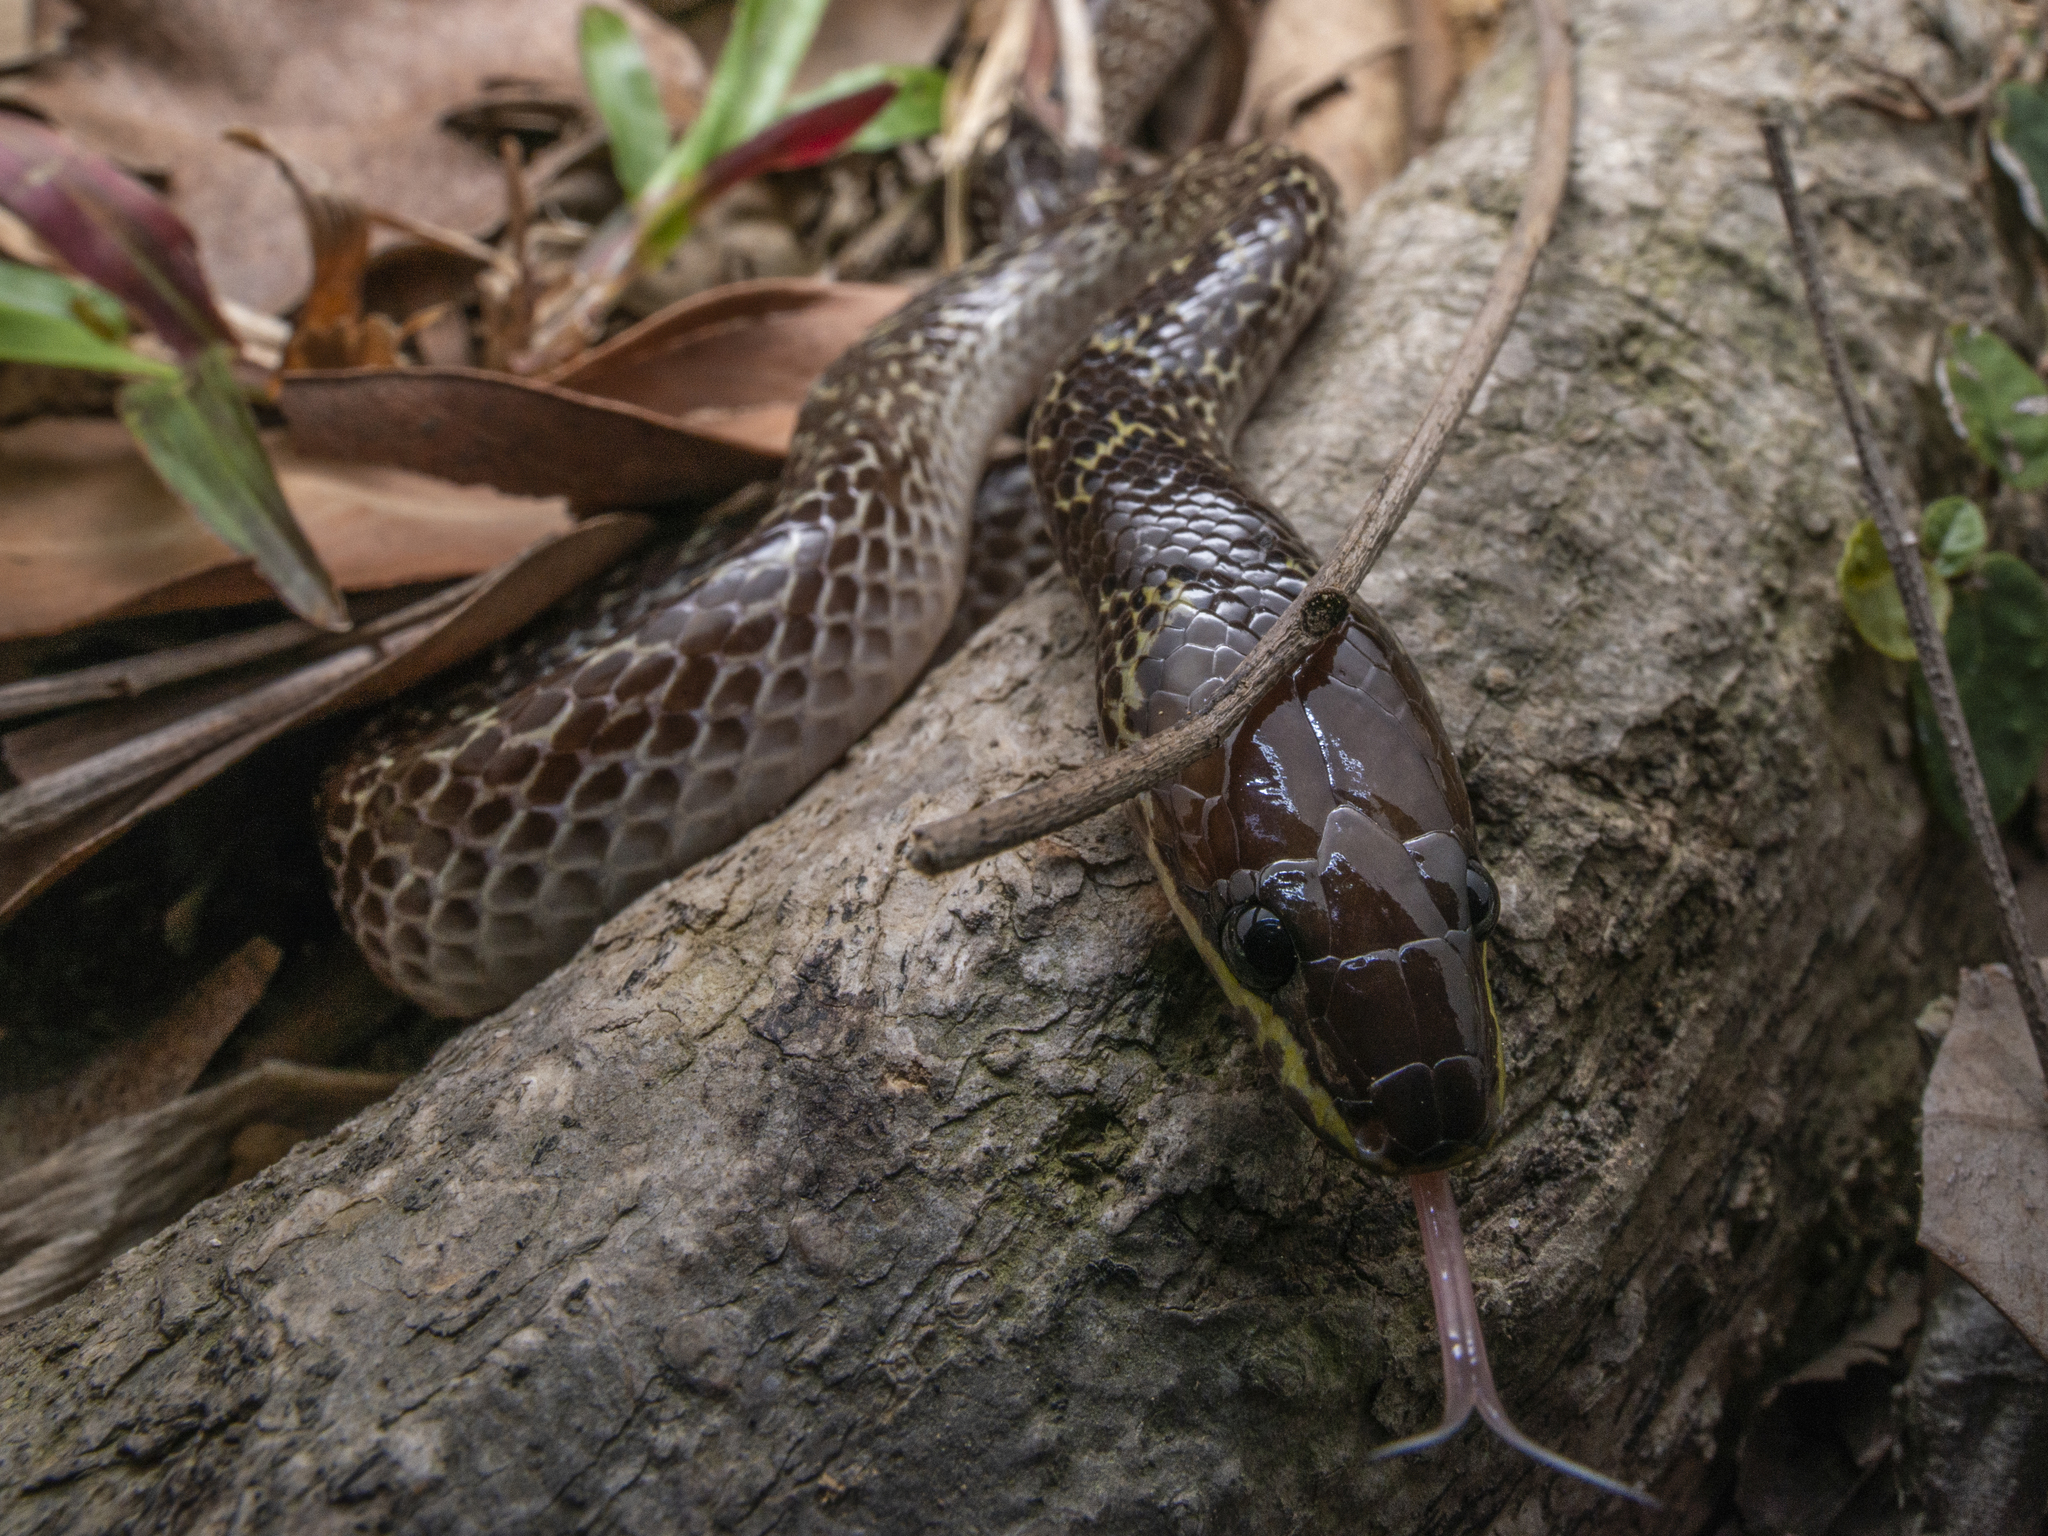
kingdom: Animalia
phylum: Chordata
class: Squamata
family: Colubridae
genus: Lycodon
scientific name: Lycodon capucinus
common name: Common wold snake/house snake
